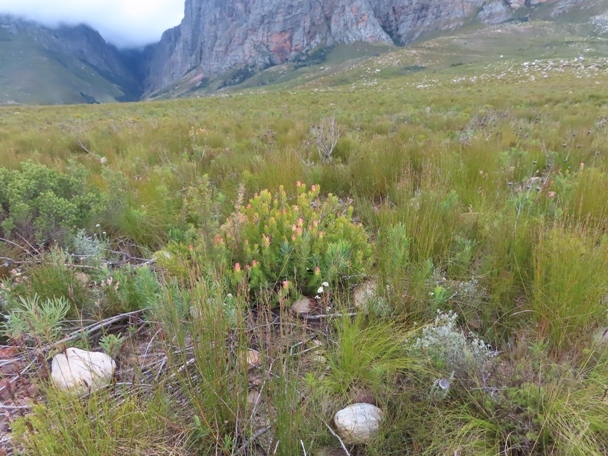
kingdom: Plantae
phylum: Tracheophyta
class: Magnoliopsida
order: Proteales
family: Proteaceae
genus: Mimetes
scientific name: Mimetes cucullatus
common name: Common pagoda
